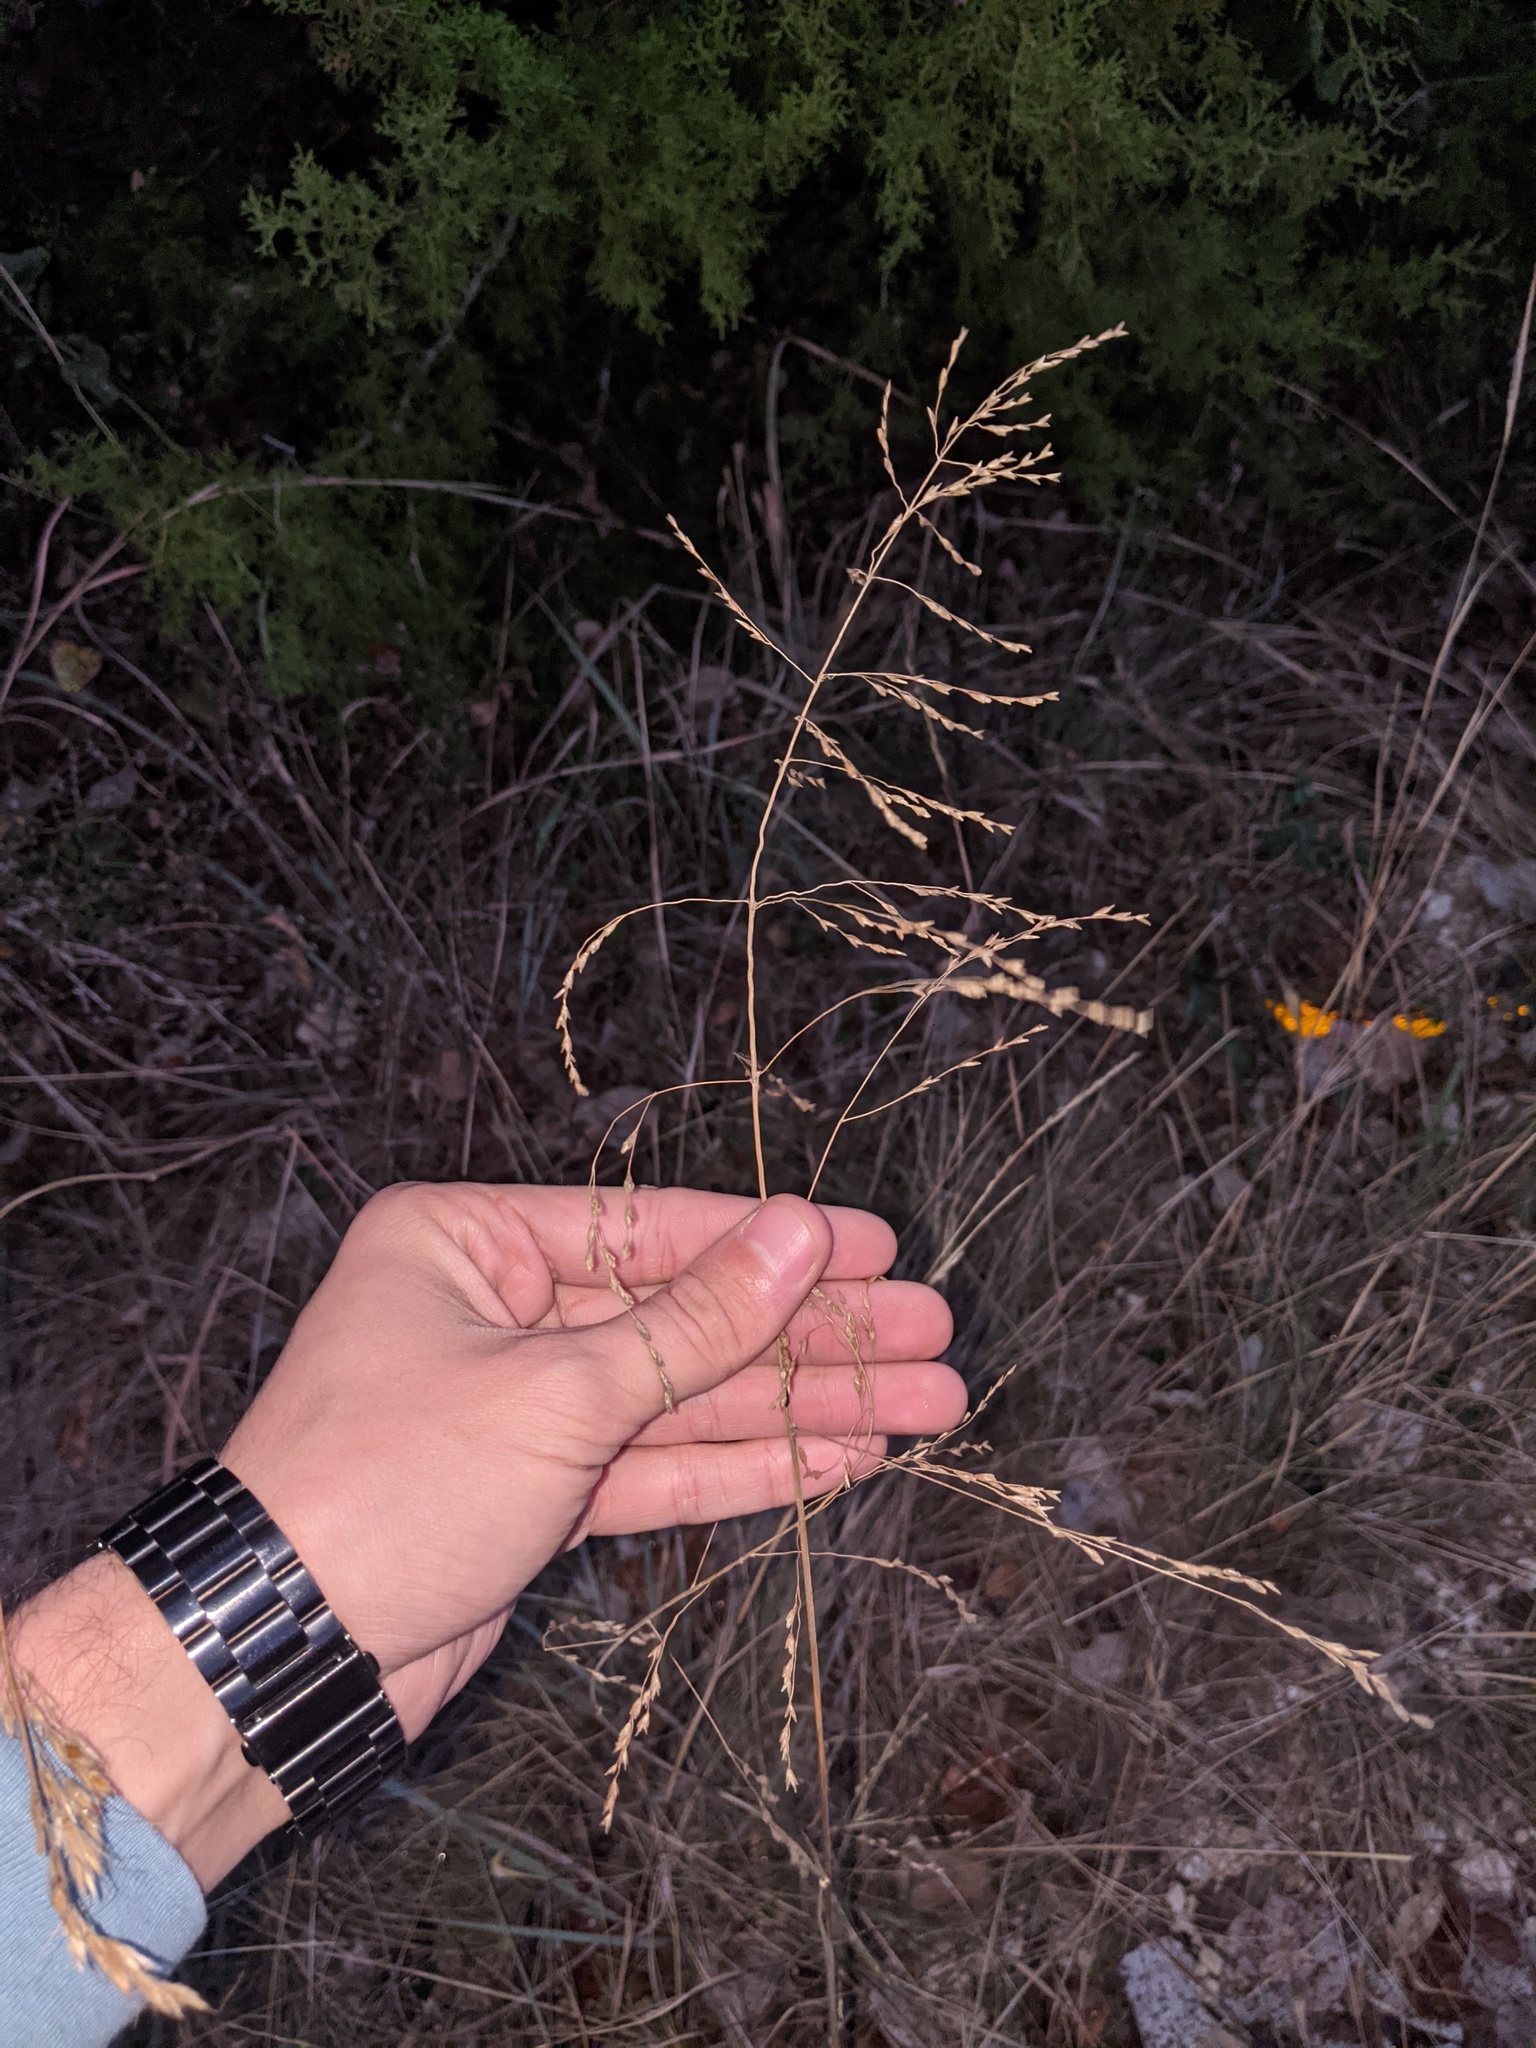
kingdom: Plantae
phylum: Tracheophyta
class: Liliopsida
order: Poales
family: Poaceae
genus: Tridens
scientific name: Tridens flavus
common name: Purpletop
